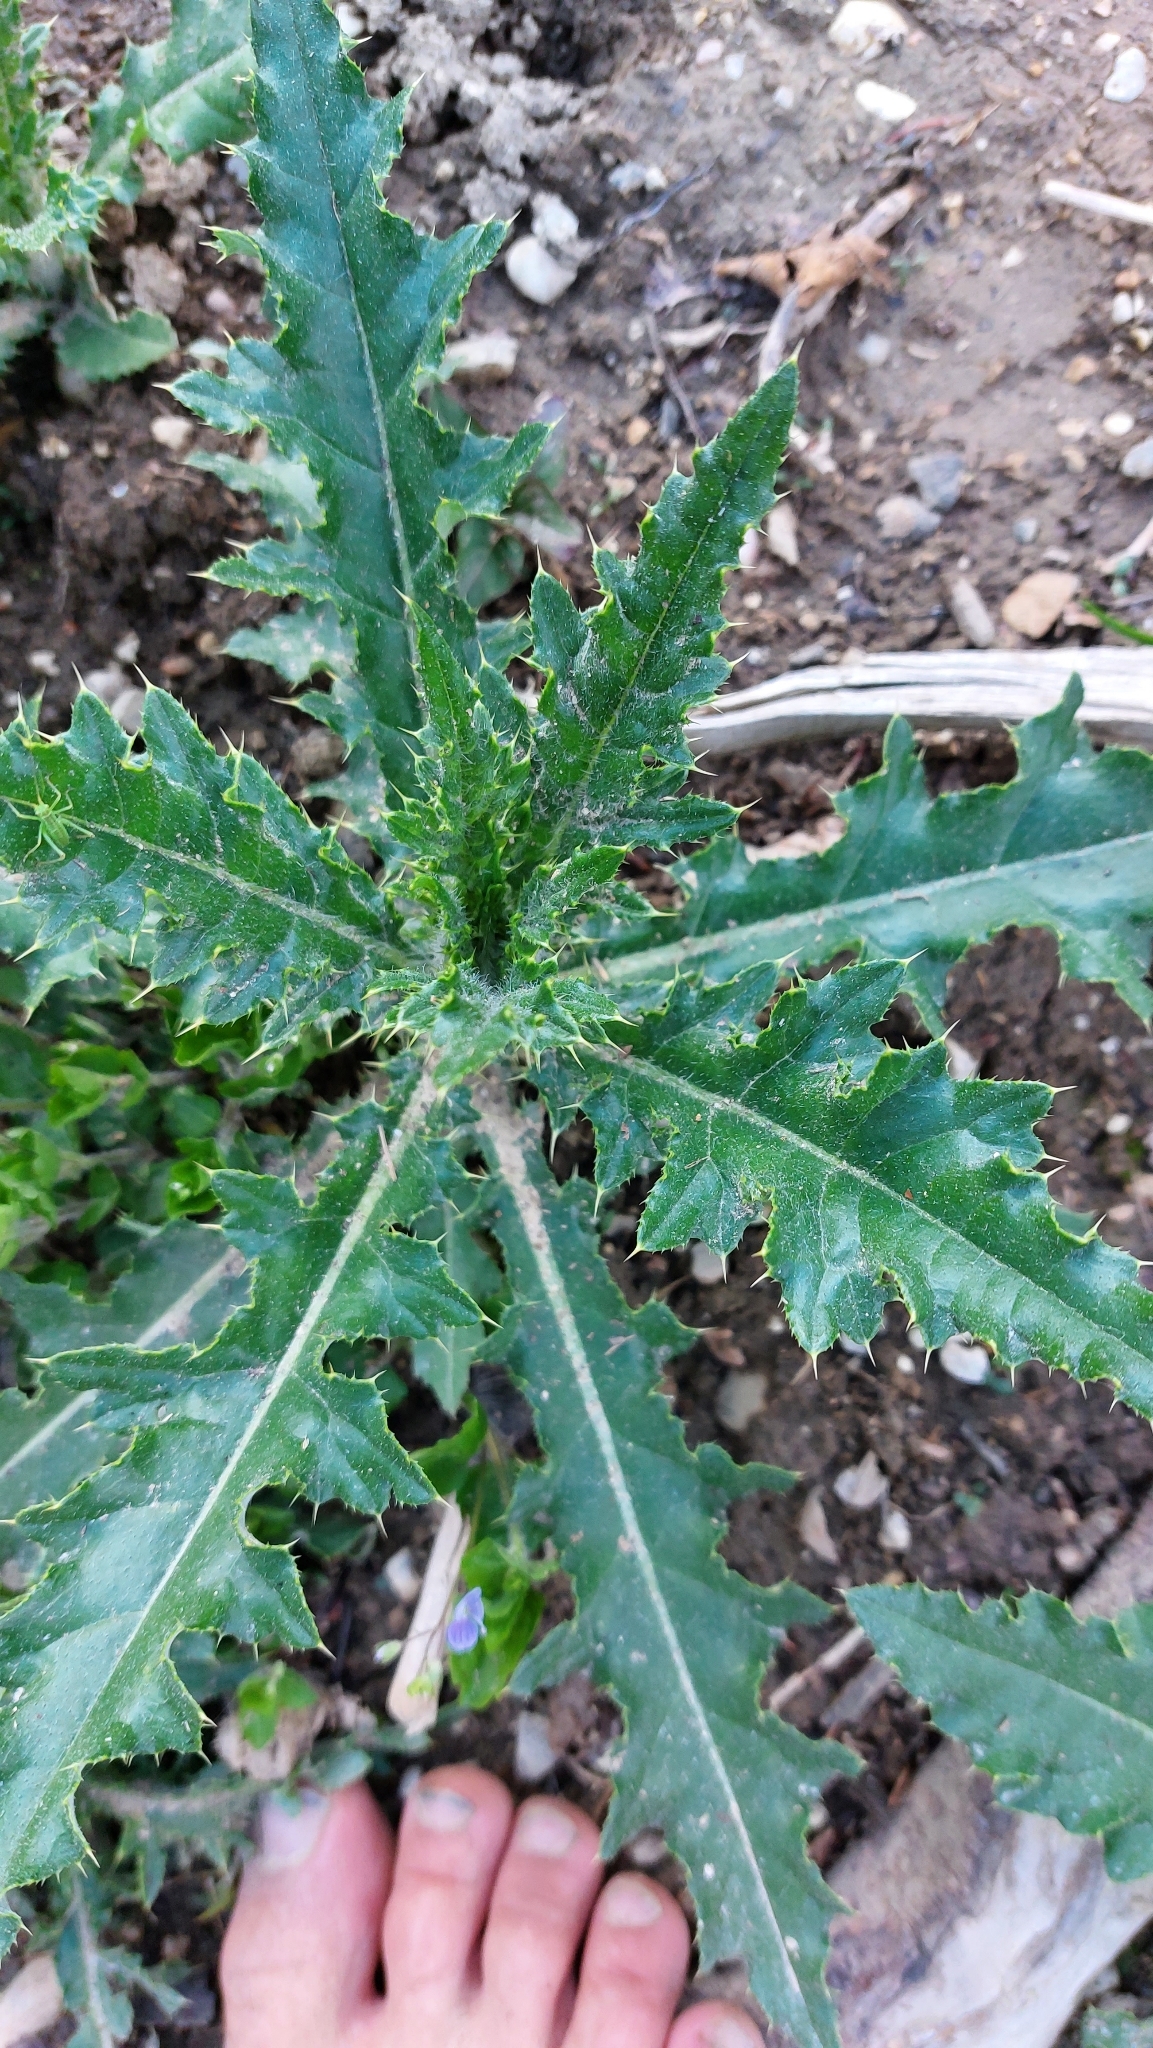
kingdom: Plantae
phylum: Tracheophyta
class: Magnoliopsida
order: Asterales
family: Asteraceae
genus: Cirsium
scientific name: Cirsium arvense
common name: Creeping thistle
